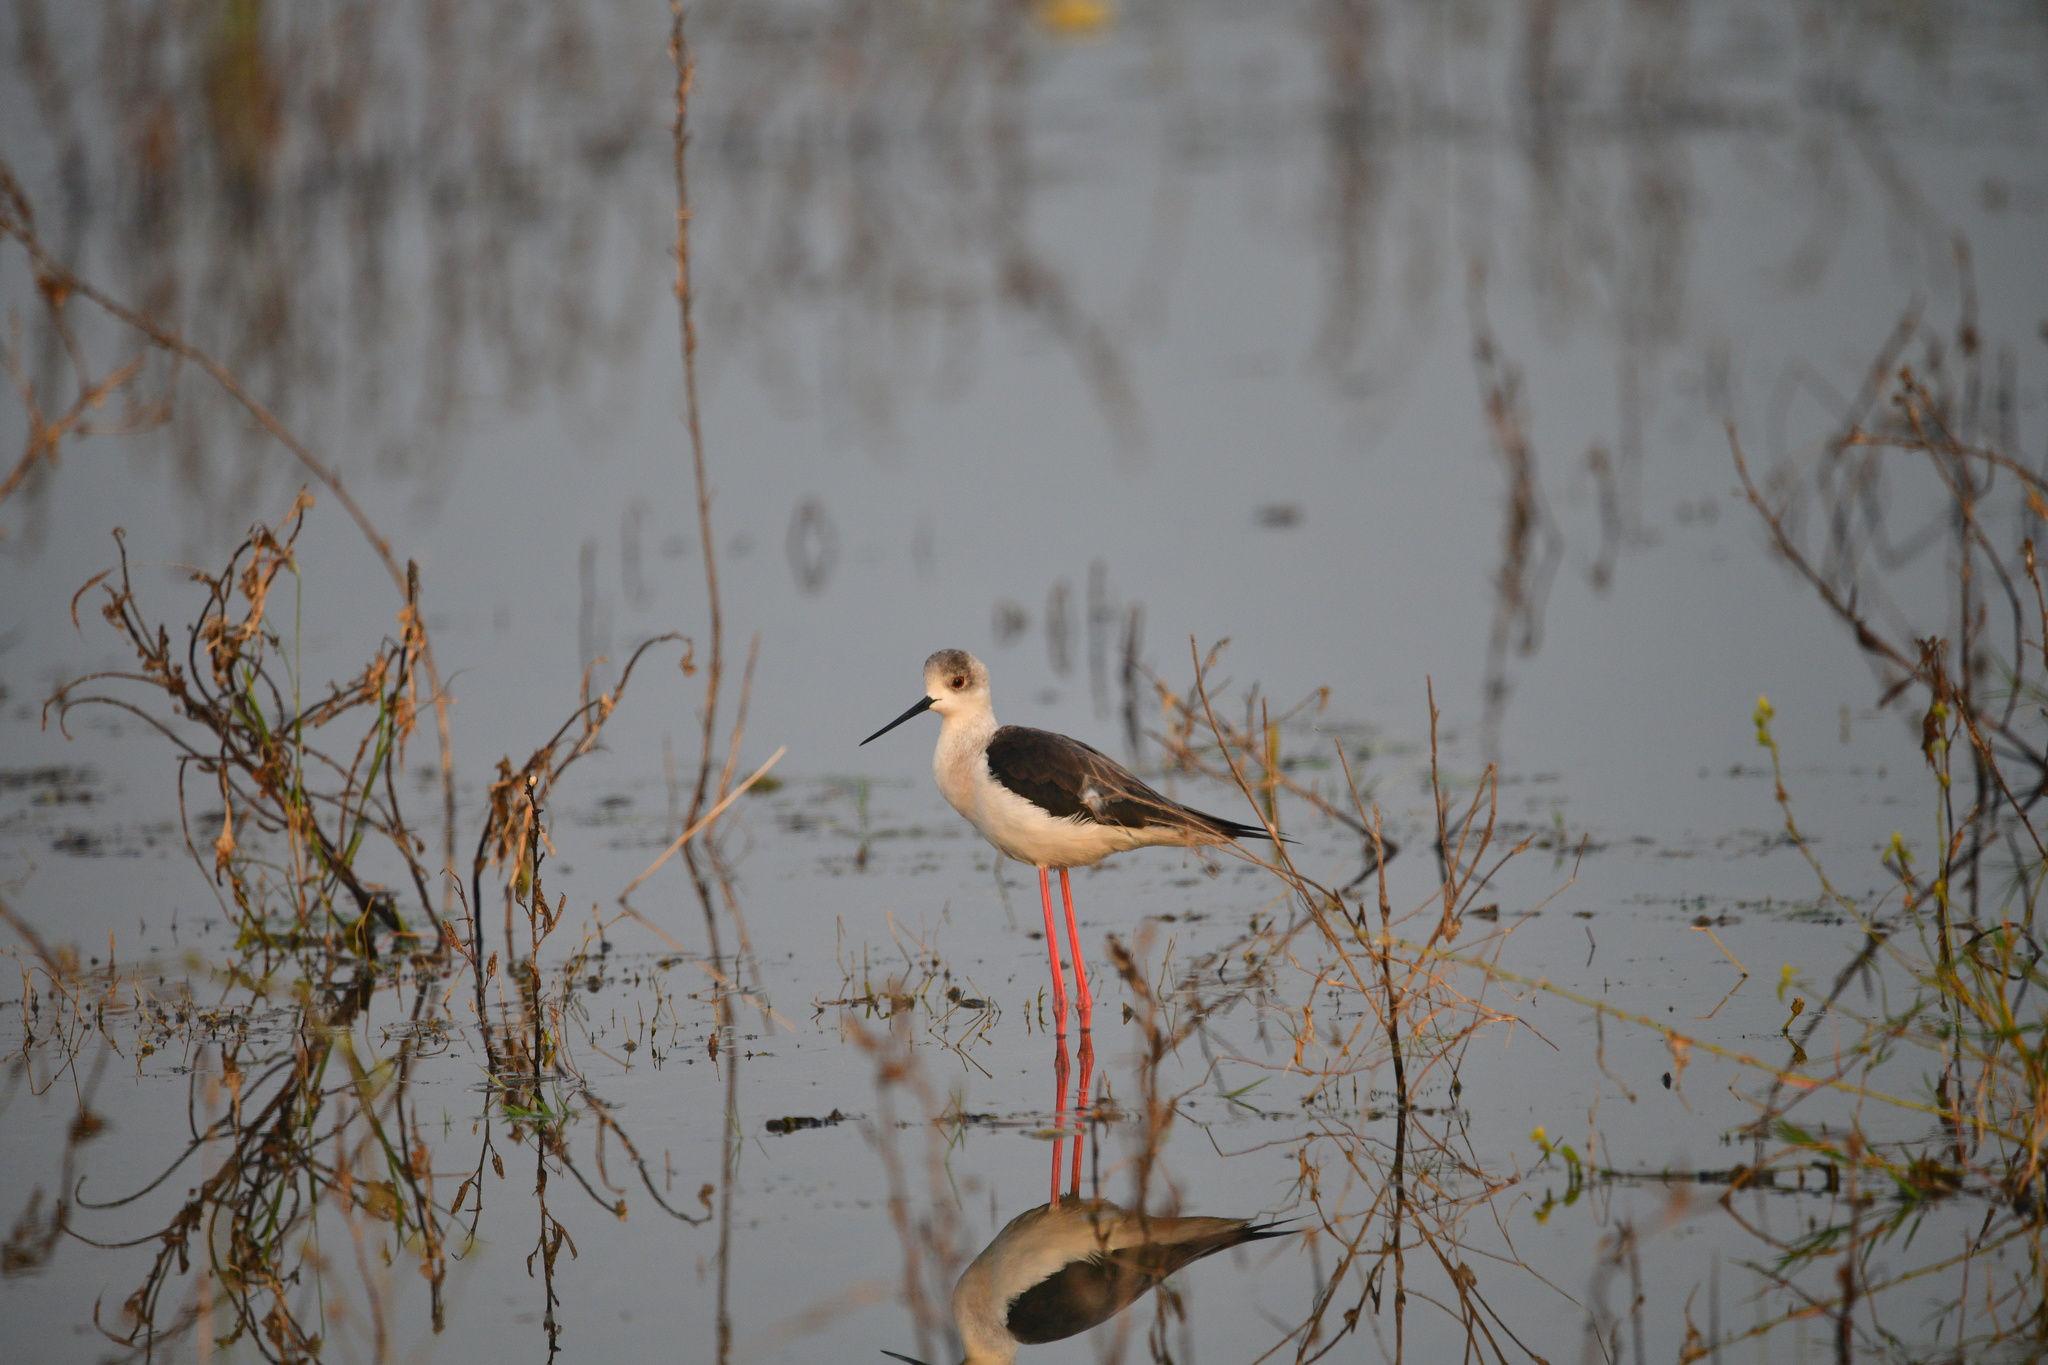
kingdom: Animalia
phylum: Chordata
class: Aves
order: Charadriiformes
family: Recurvirostridae
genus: Himantopus
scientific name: Himantopus himantopus
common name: Black-winged stilt
